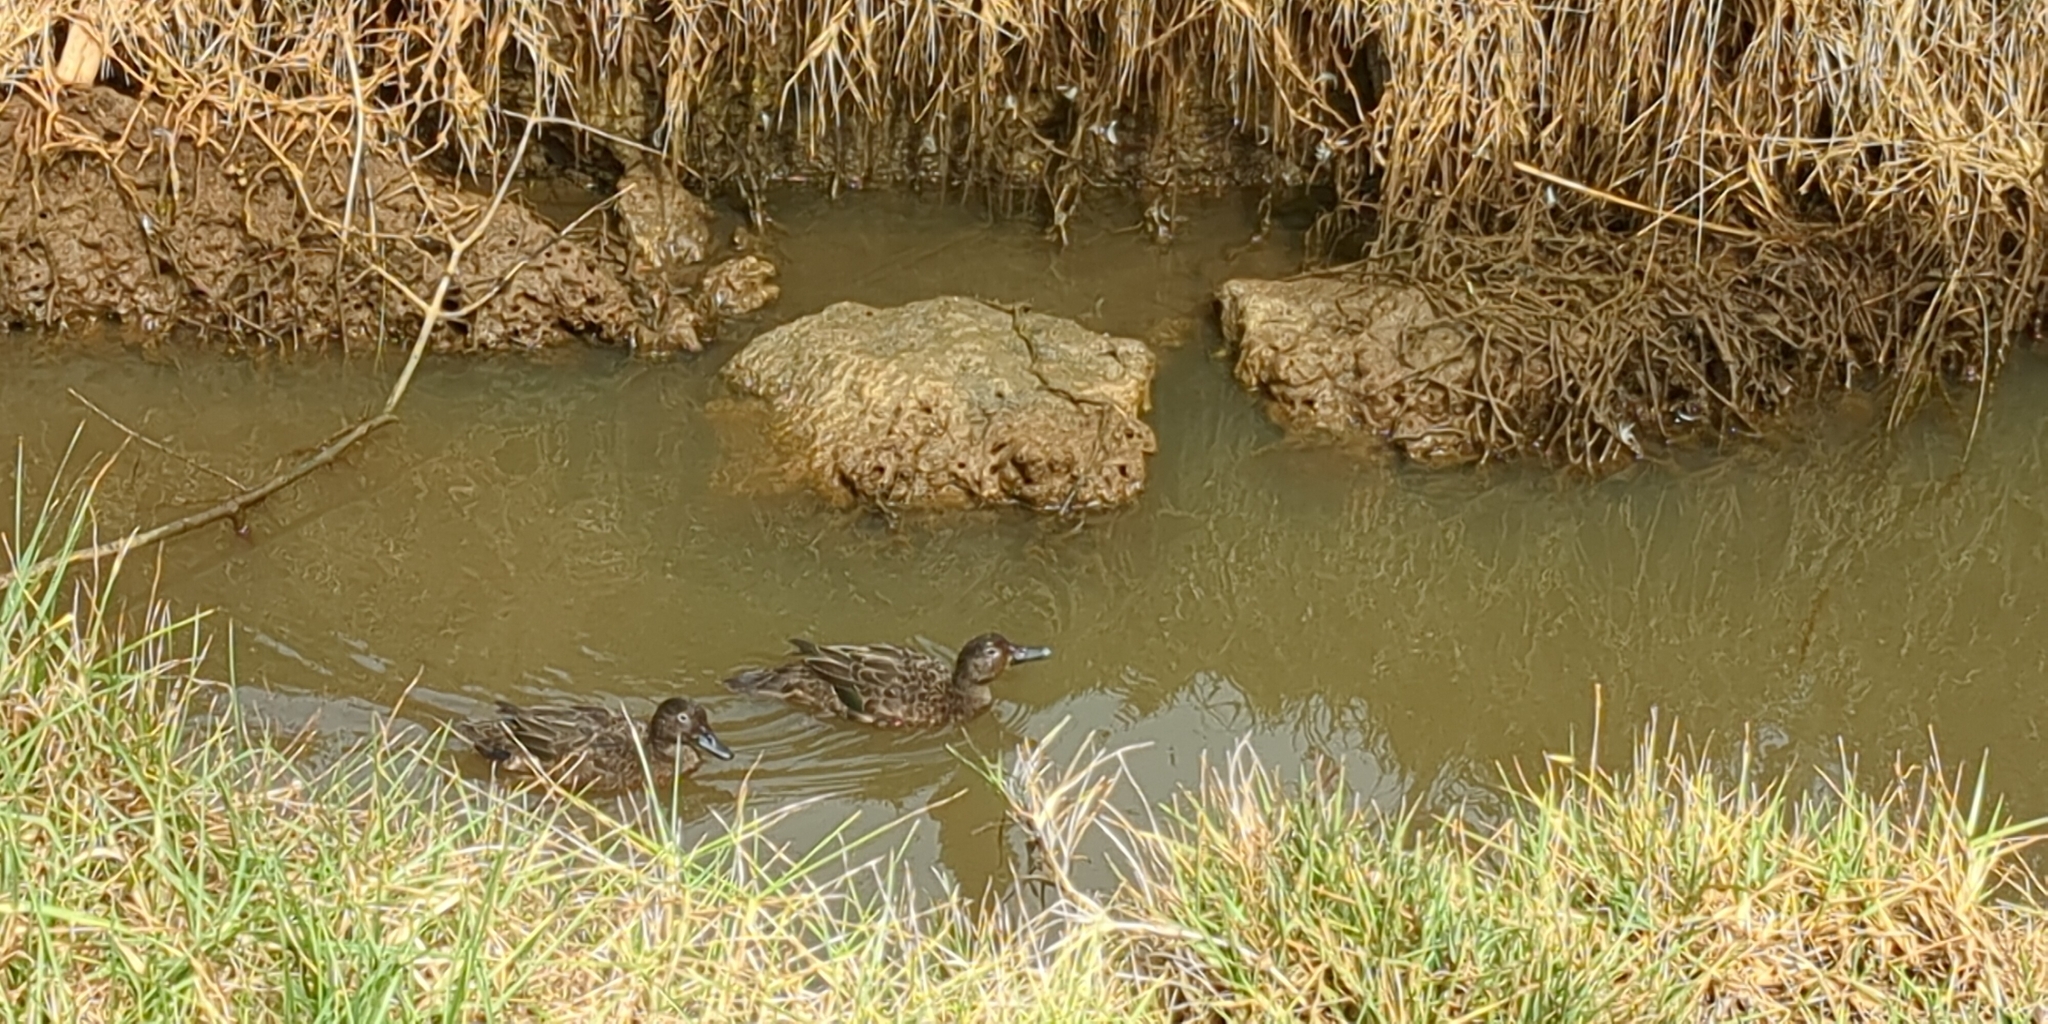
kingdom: Animalia
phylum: Chordata
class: Aves
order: Anseriformes
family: Anatidae
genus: Anas
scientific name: Anas chlorotis
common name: Brown teal
